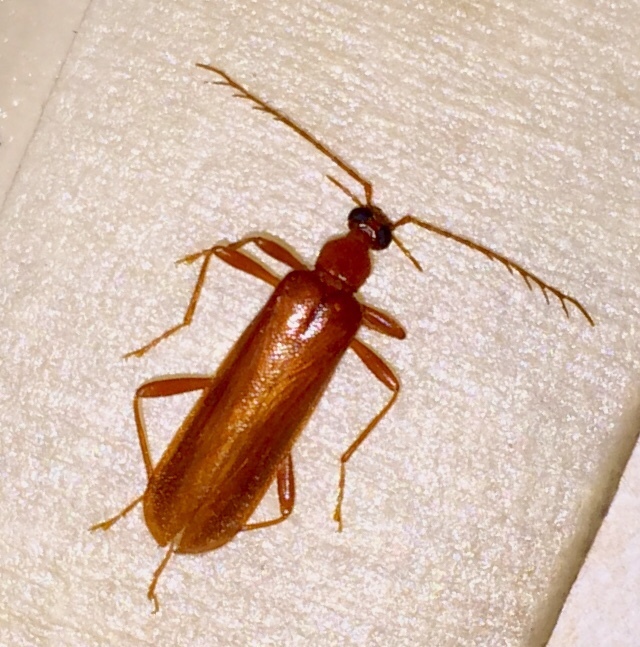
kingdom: Animalia
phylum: Arthropoda
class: Insecta
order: Coleoptera
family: Pyrochroidae
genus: Dendroides
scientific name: Dendroides concolor
